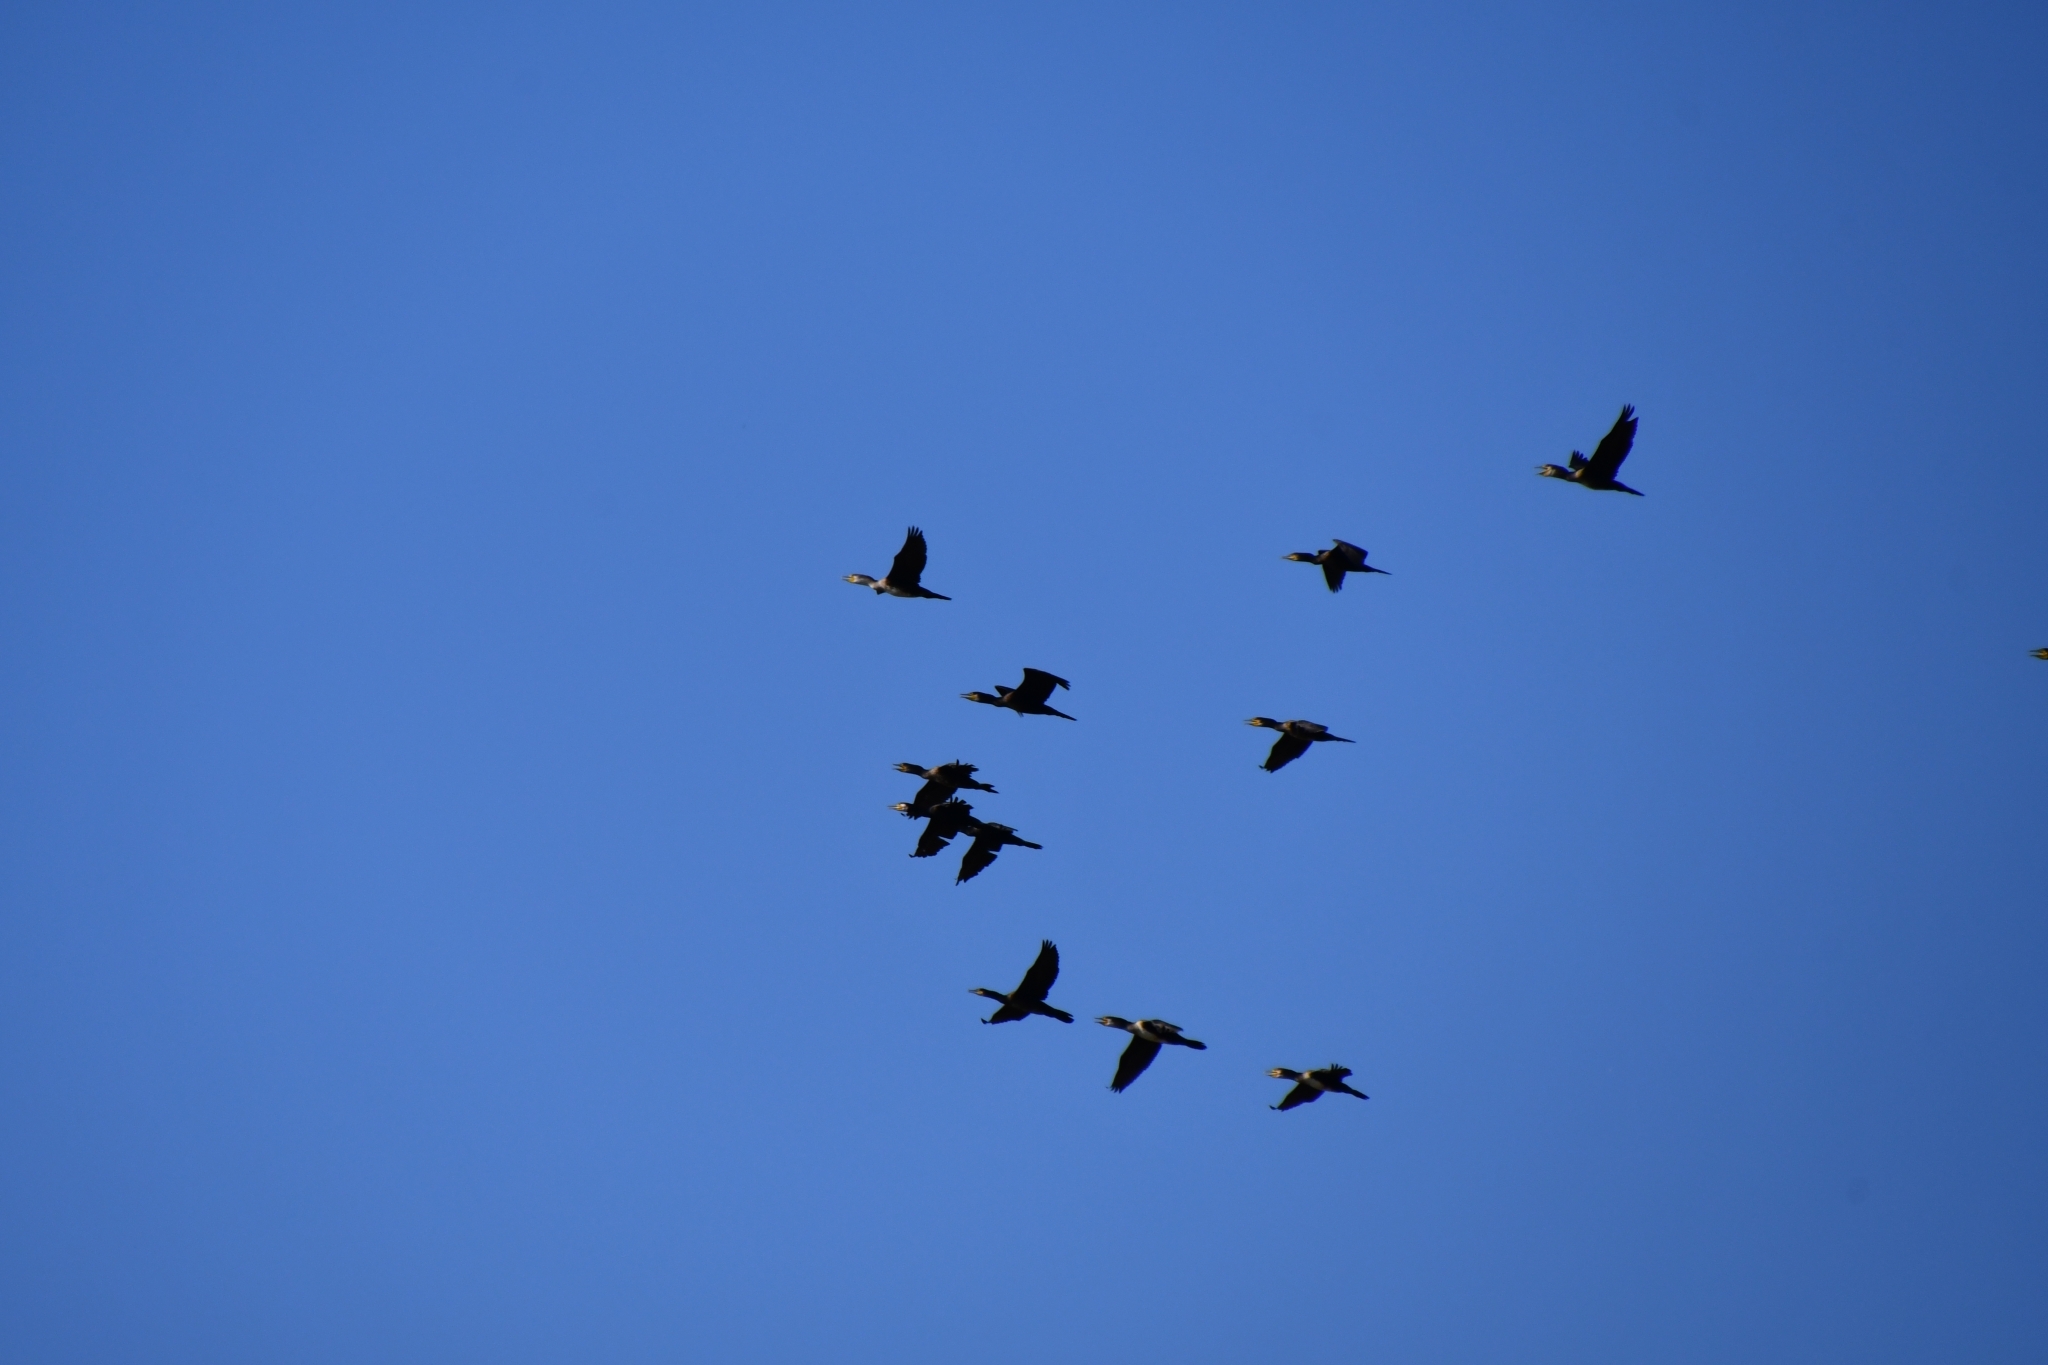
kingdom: Animalia
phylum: Chordata
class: Aves
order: Suliformes
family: Phalacrocoracidae
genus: Phalacrocorax
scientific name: Phalacrocorax carbo
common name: Great cormorant
